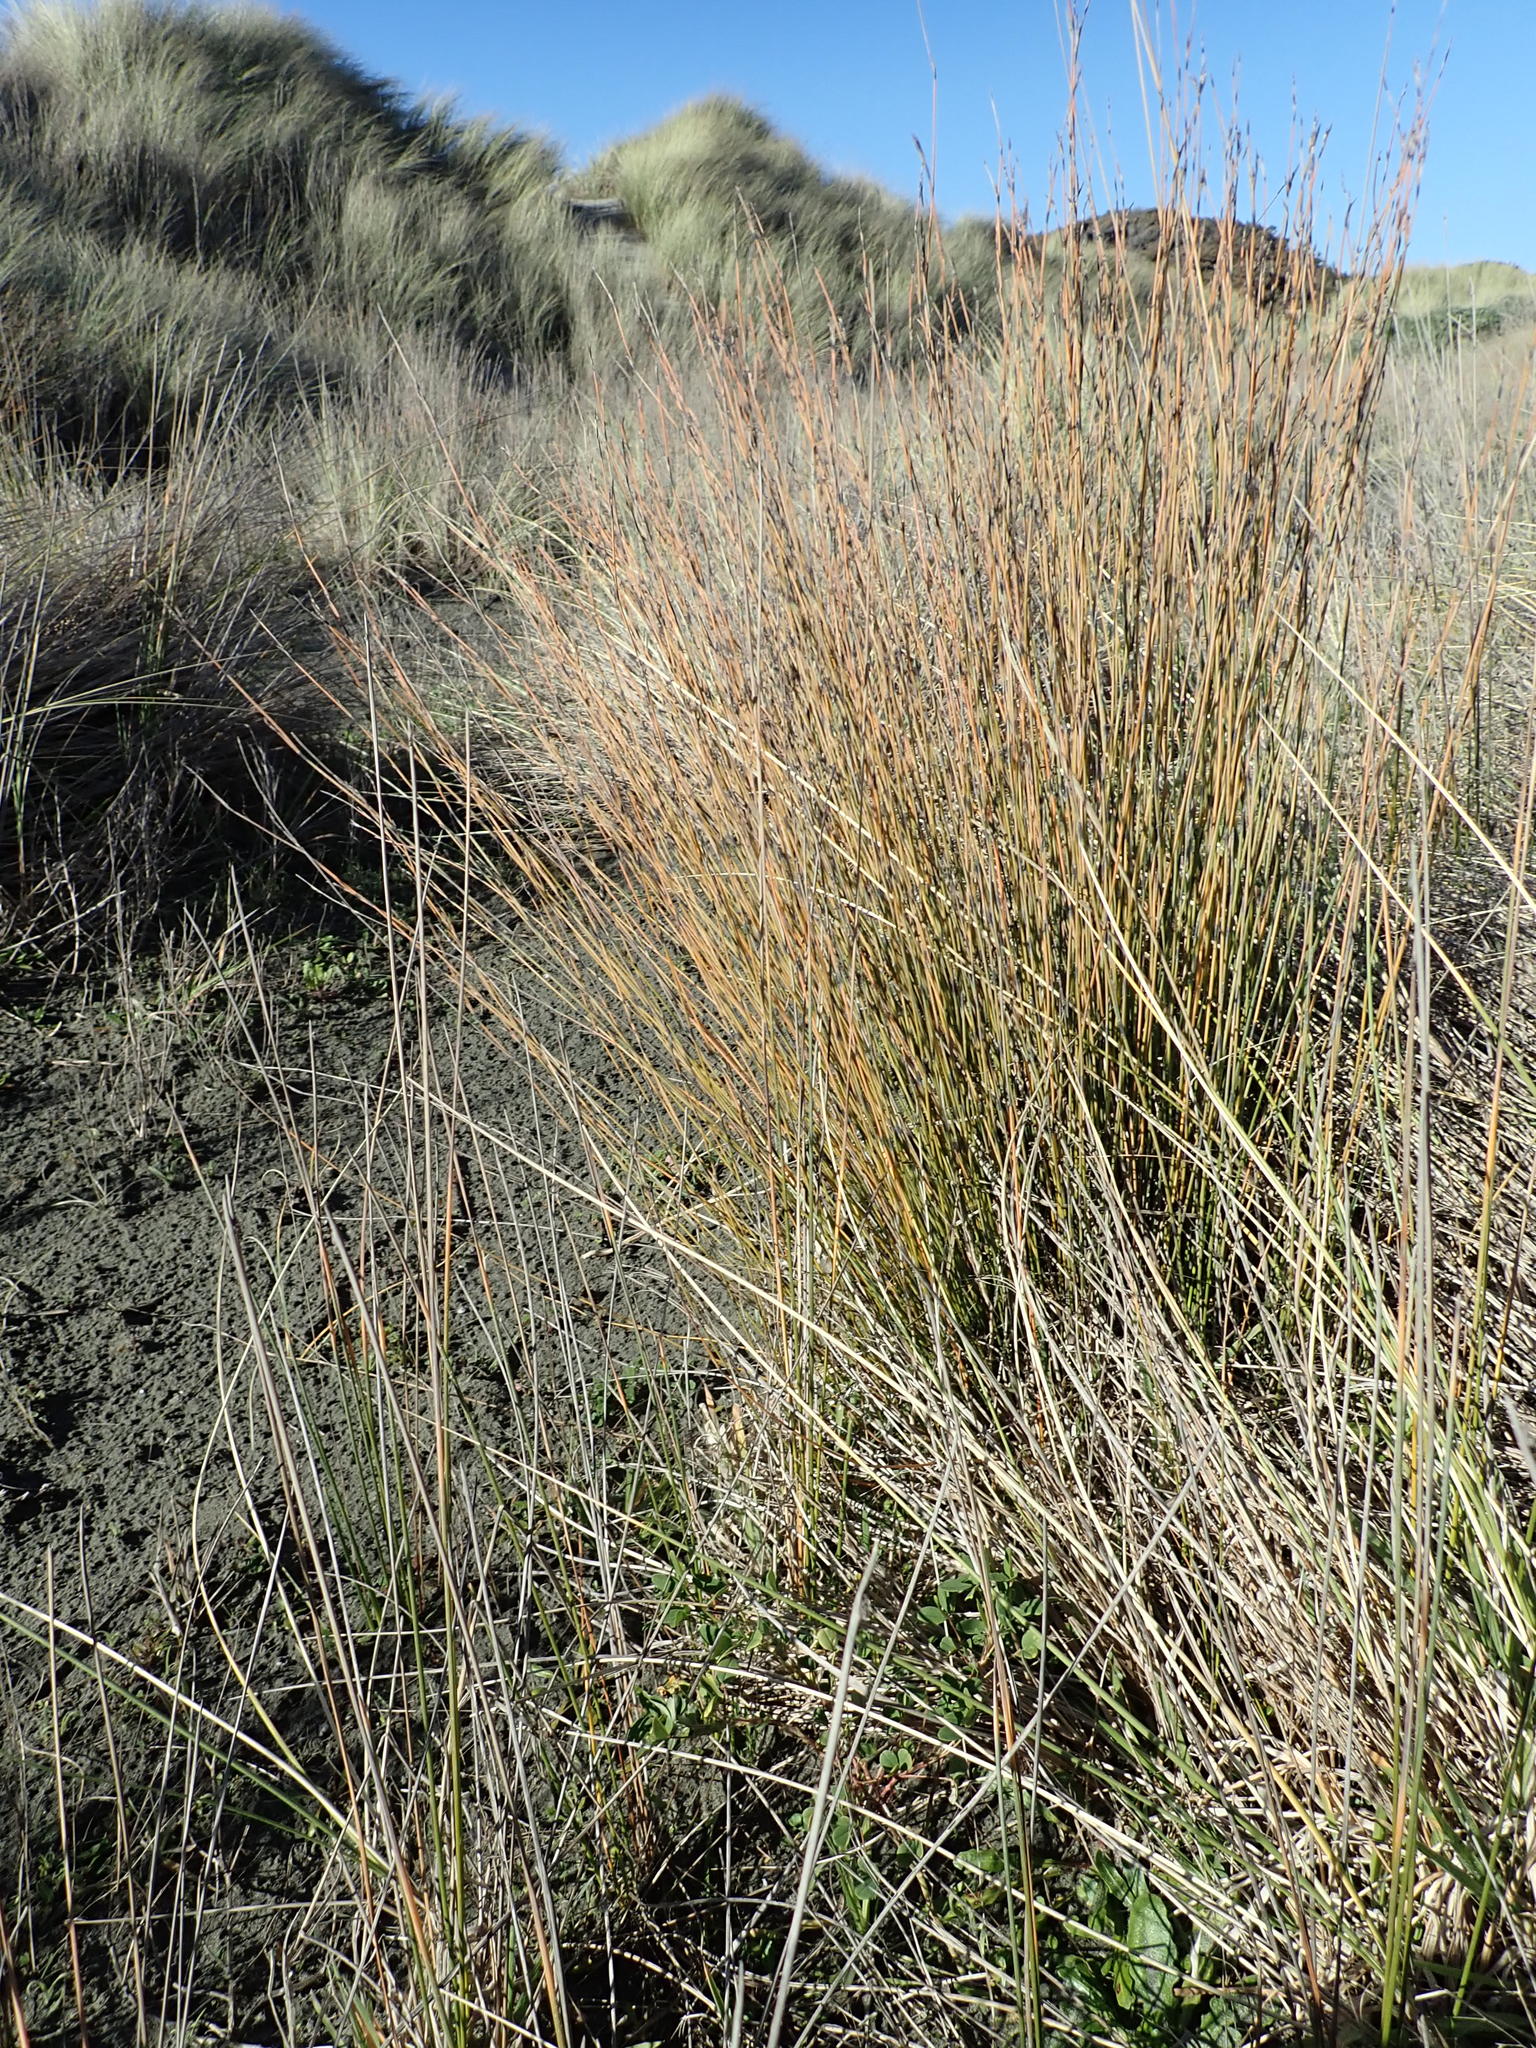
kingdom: Plantae
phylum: Tracheophyta
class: Liliopsida
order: Poales
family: Restionaceae
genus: Apodasmia
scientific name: Apodasmia similis
